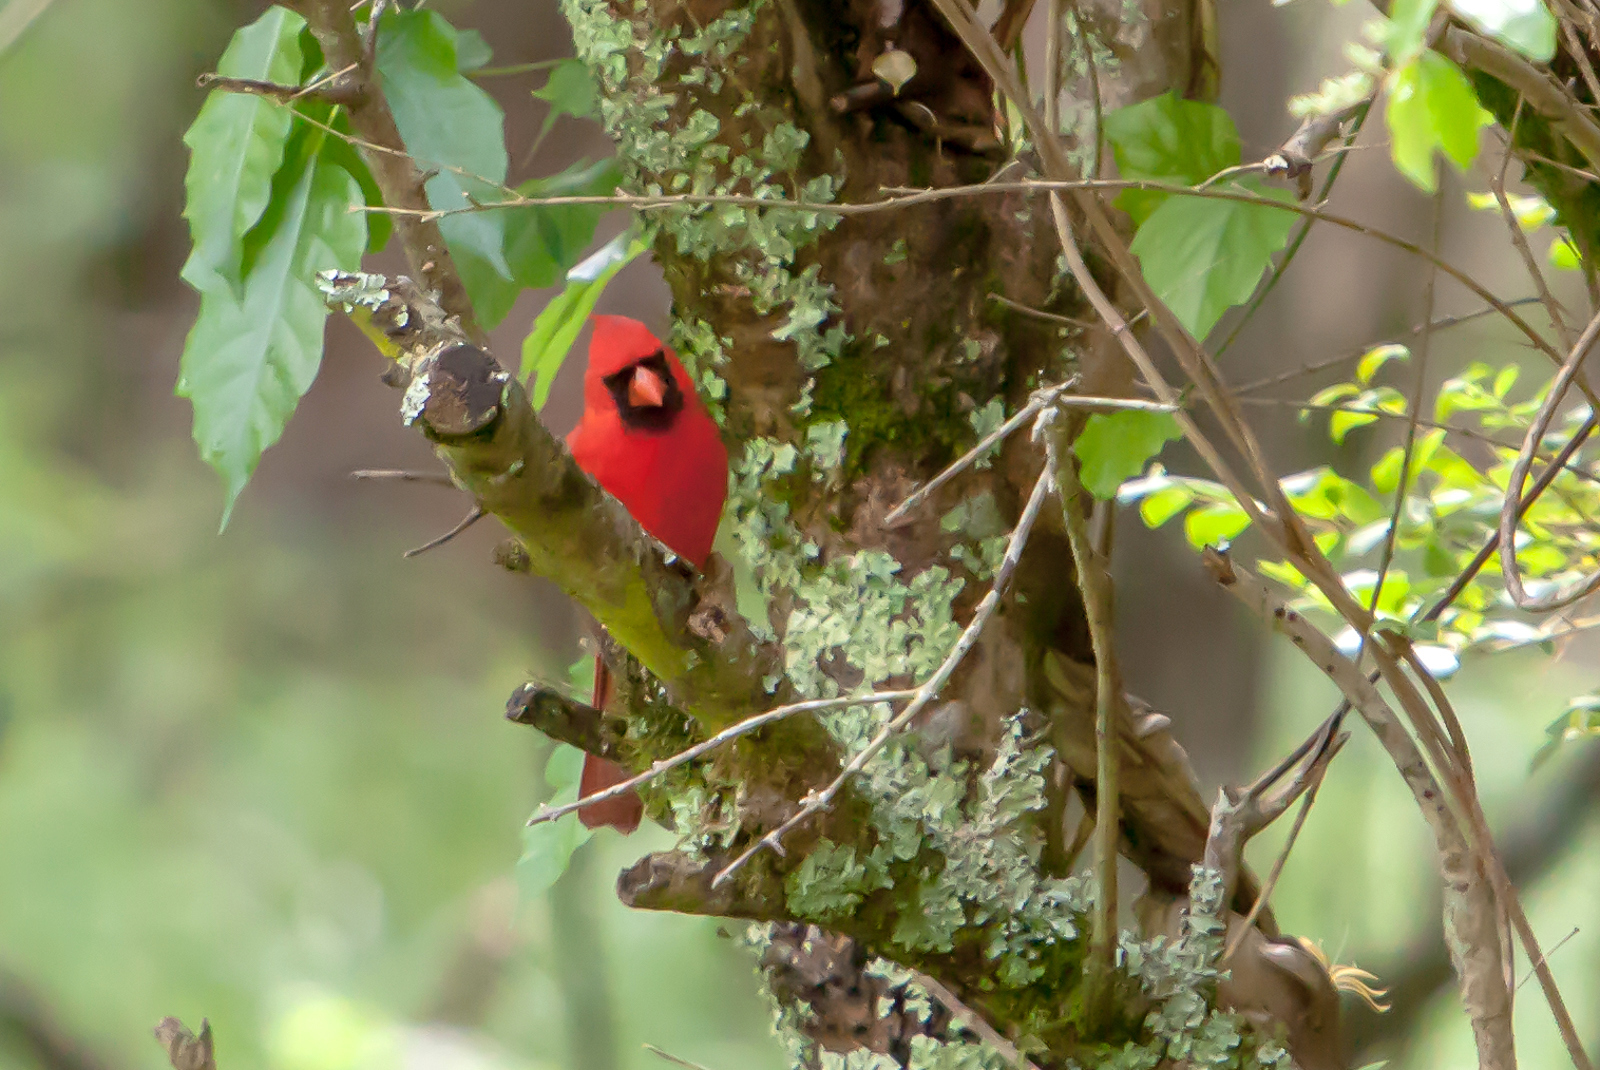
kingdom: Animalia
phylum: Chordata
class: Aves
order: Passeriformes
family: Cardinalidae
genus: Cardinalis
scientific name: Cardinalis cardinalis
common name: Northern cardinal
